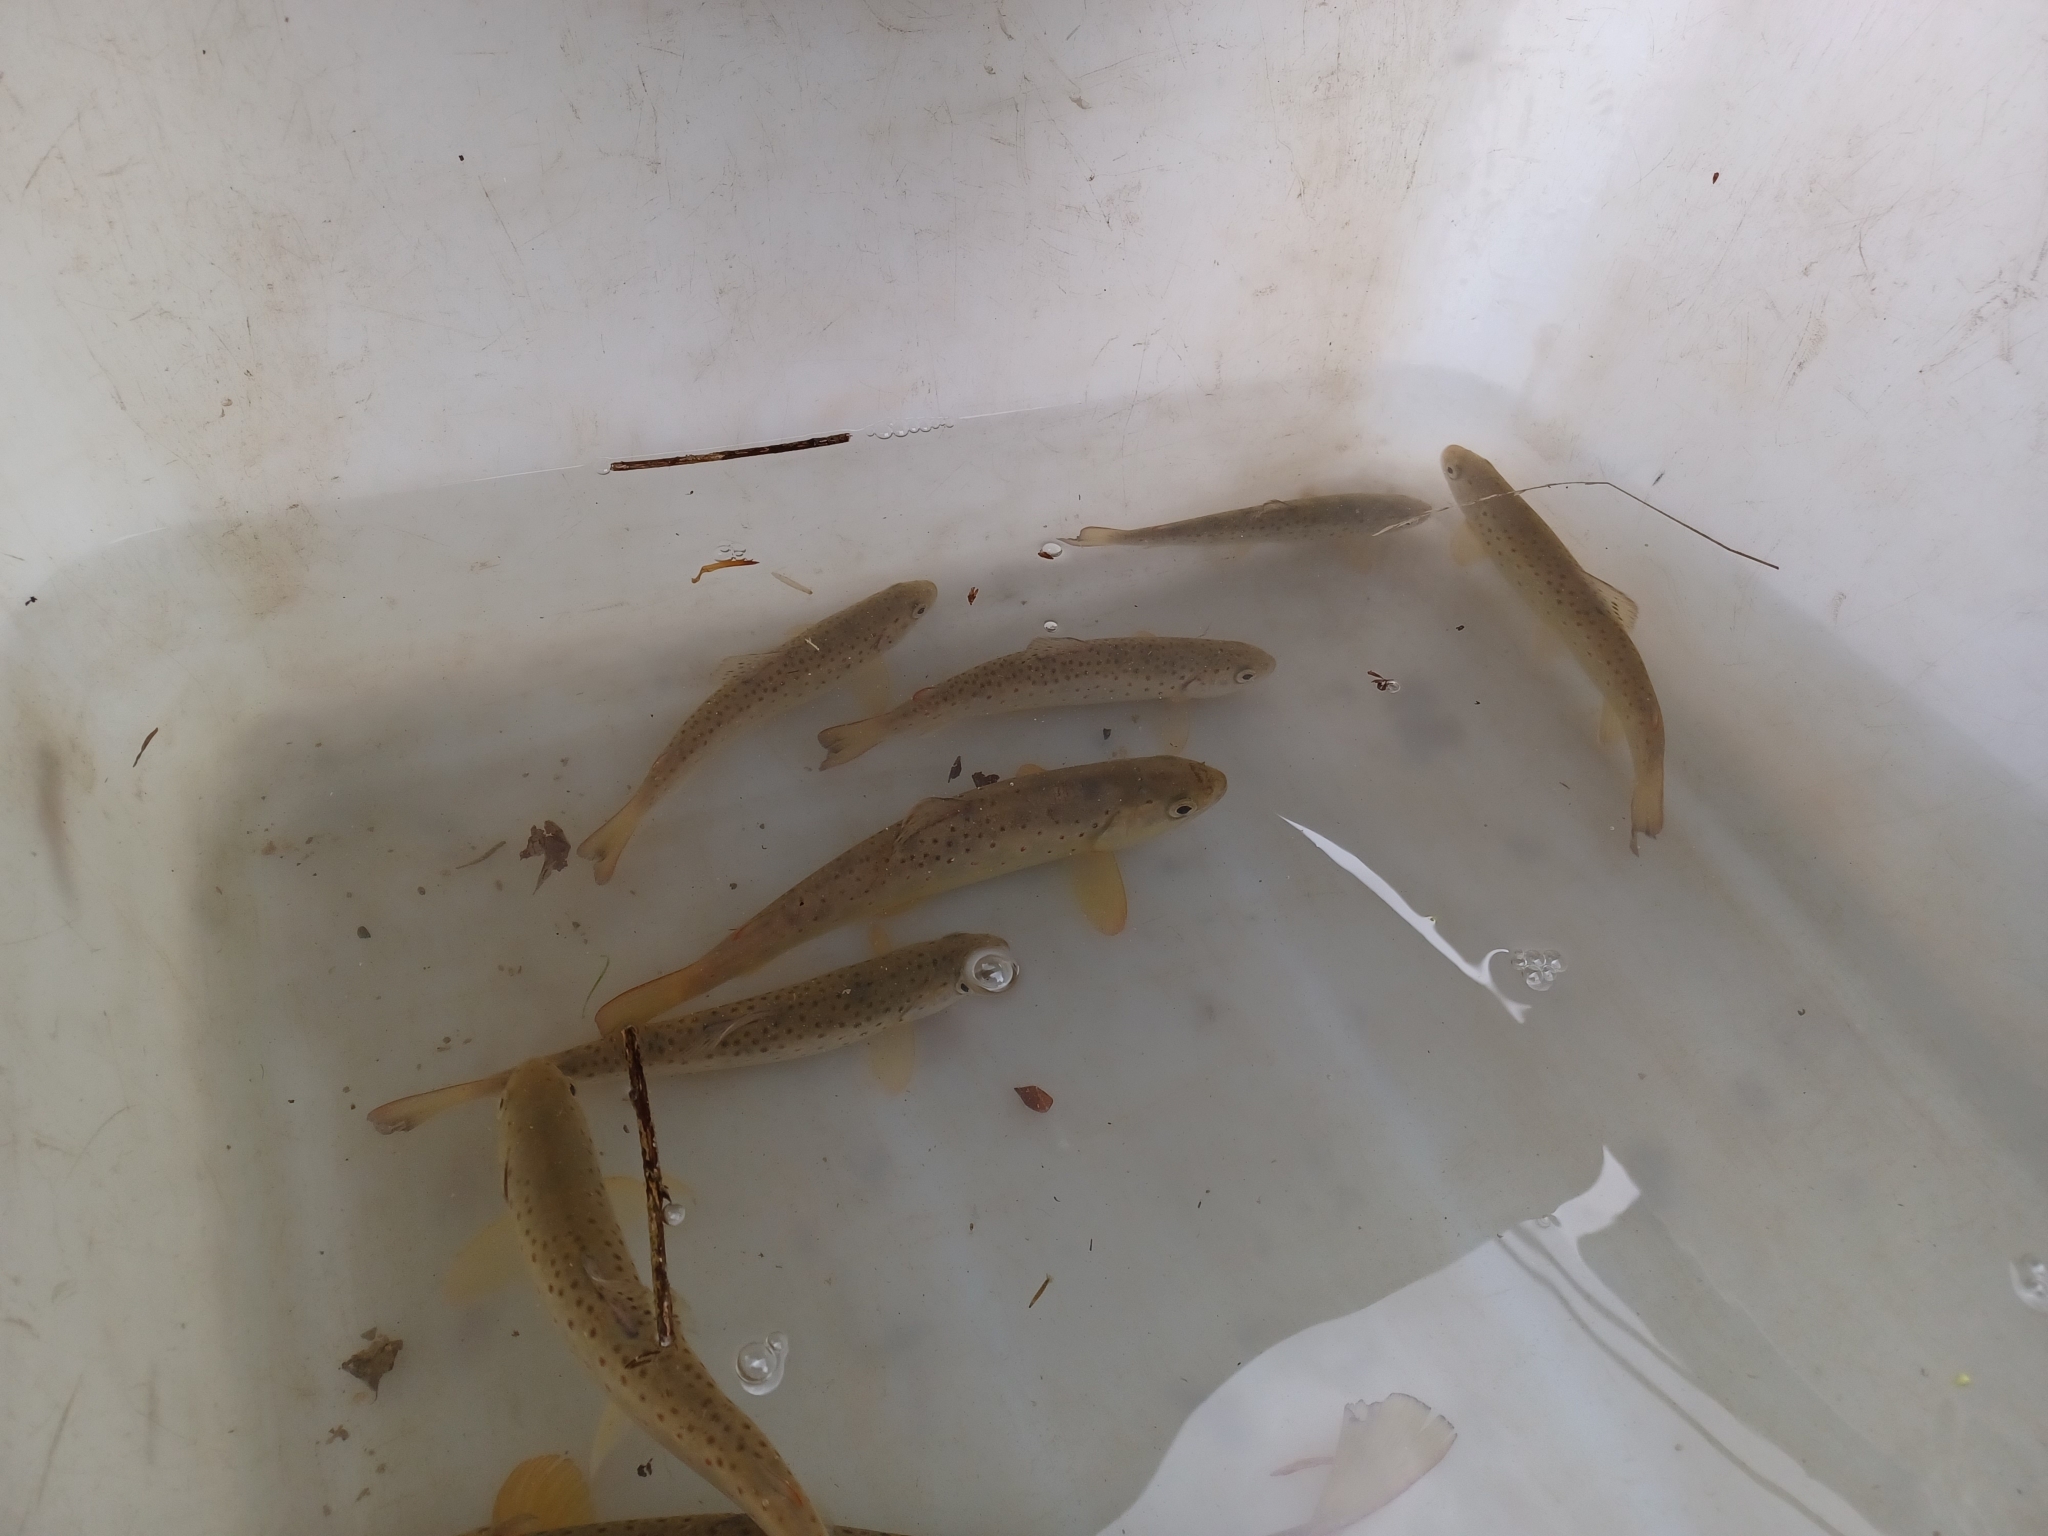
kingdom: Animalia
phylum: Chordata
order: Salmoniformes
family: Salmonidae
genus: Salmo
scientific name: Salmo trutta
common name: Brown trout
